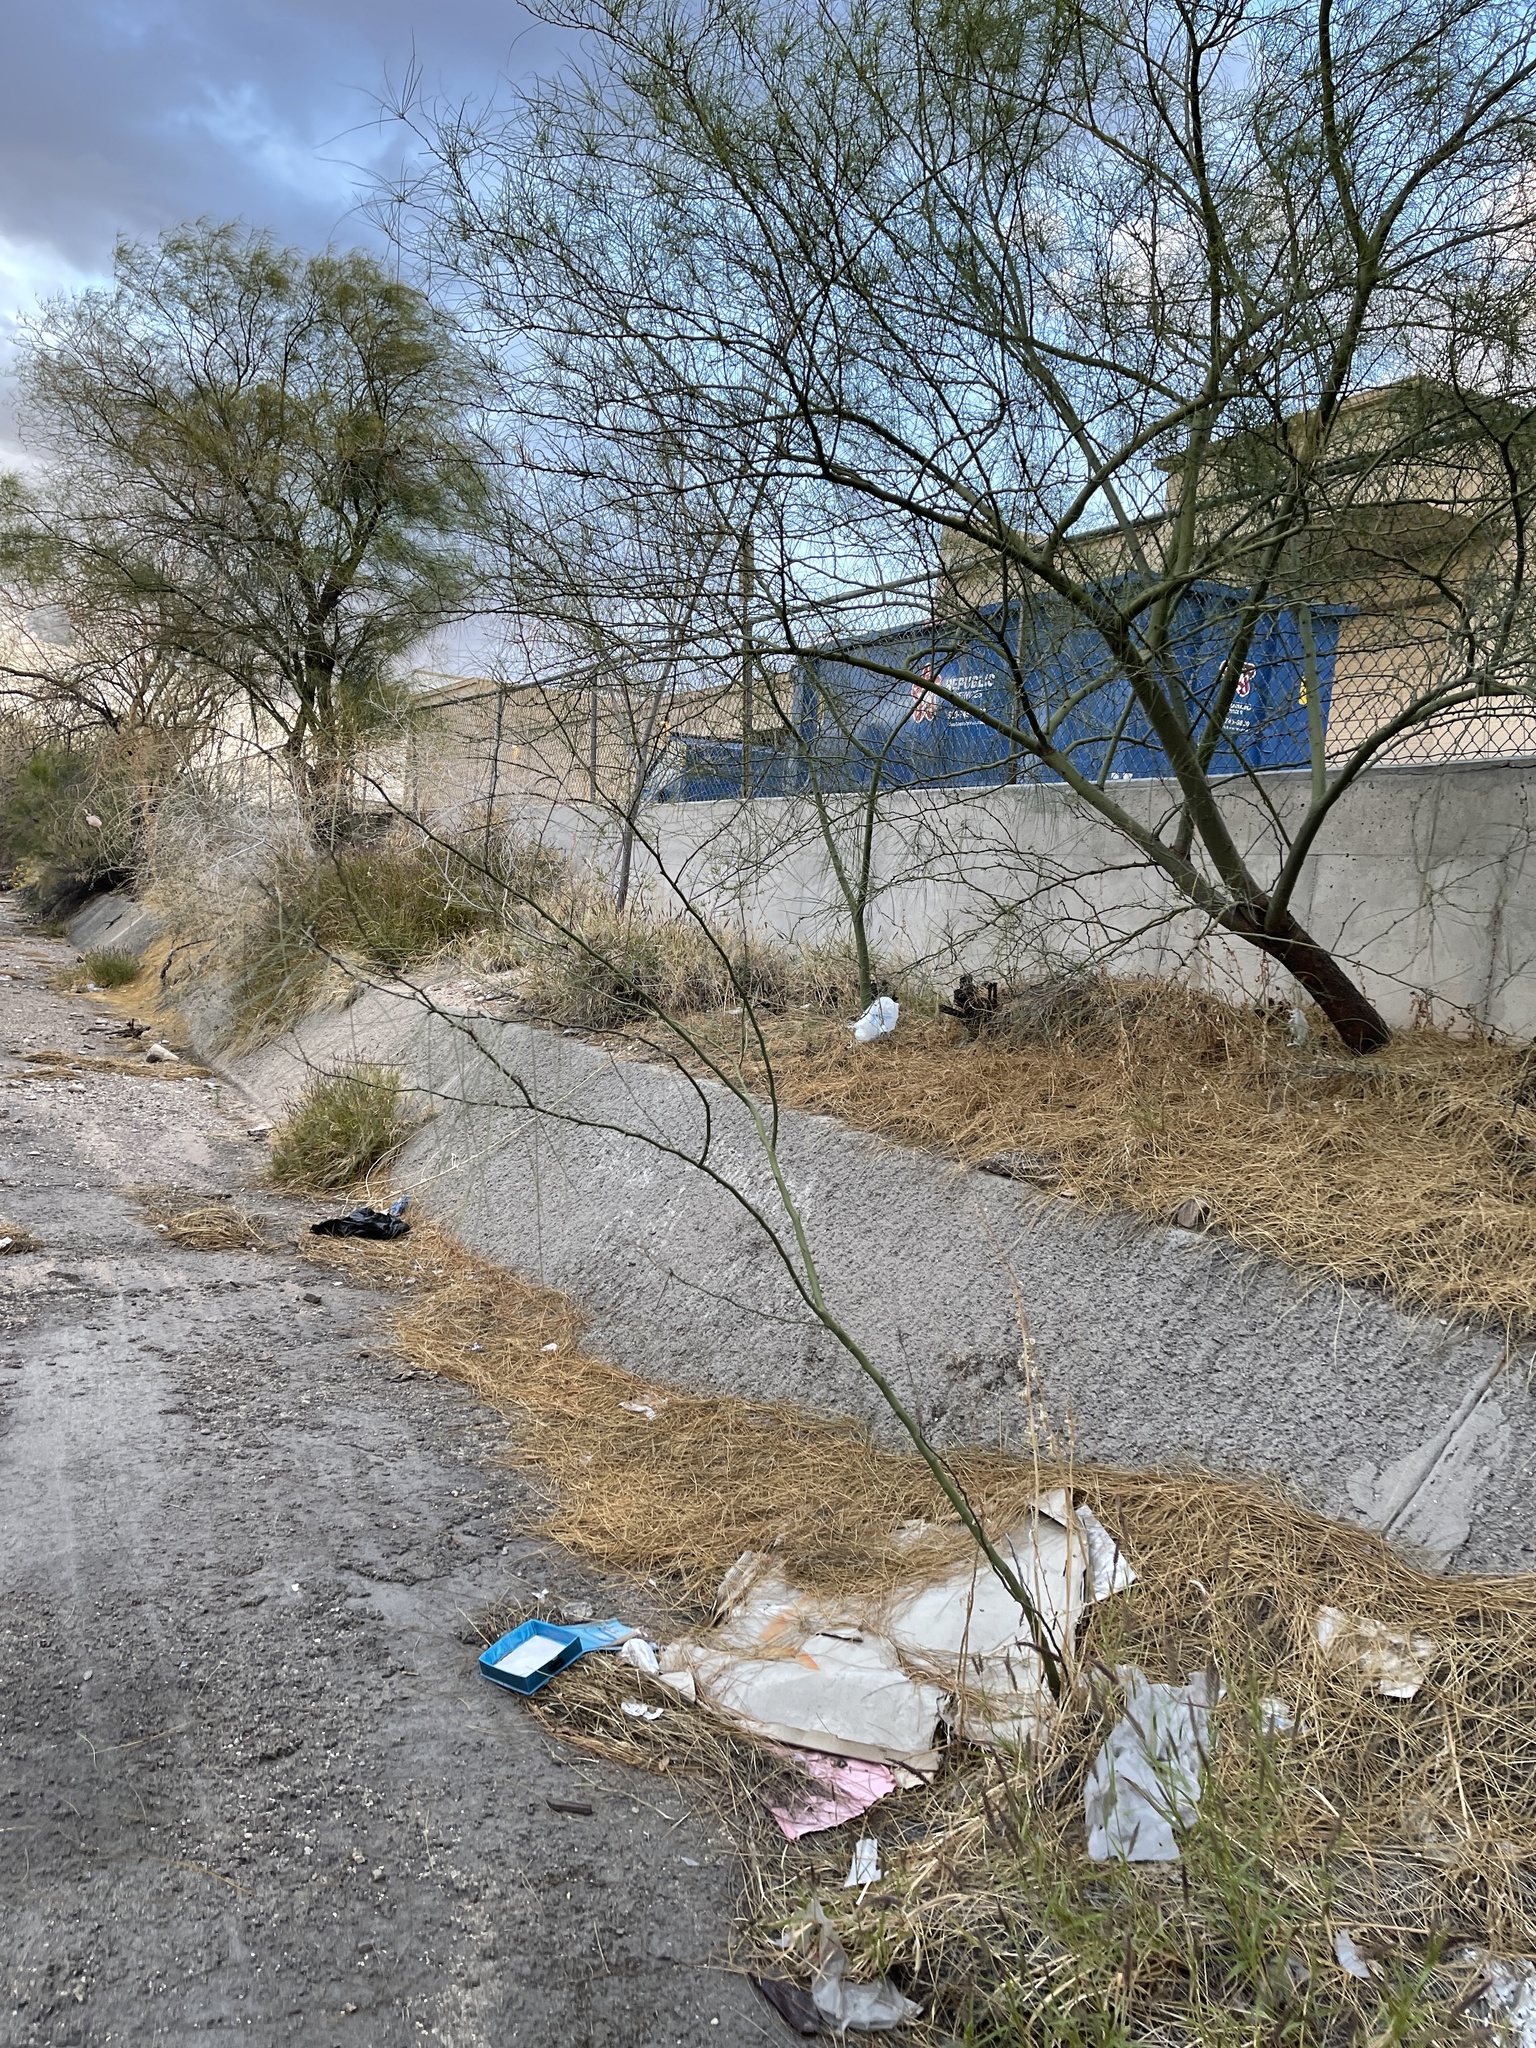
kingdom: Plantae
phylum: Tracheophyta
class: Magnoliopsida
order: Fabales
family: Fabaceae
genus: Parkinsonia
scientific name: Parkinsonia aculeata
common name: Jerusalem thorn
